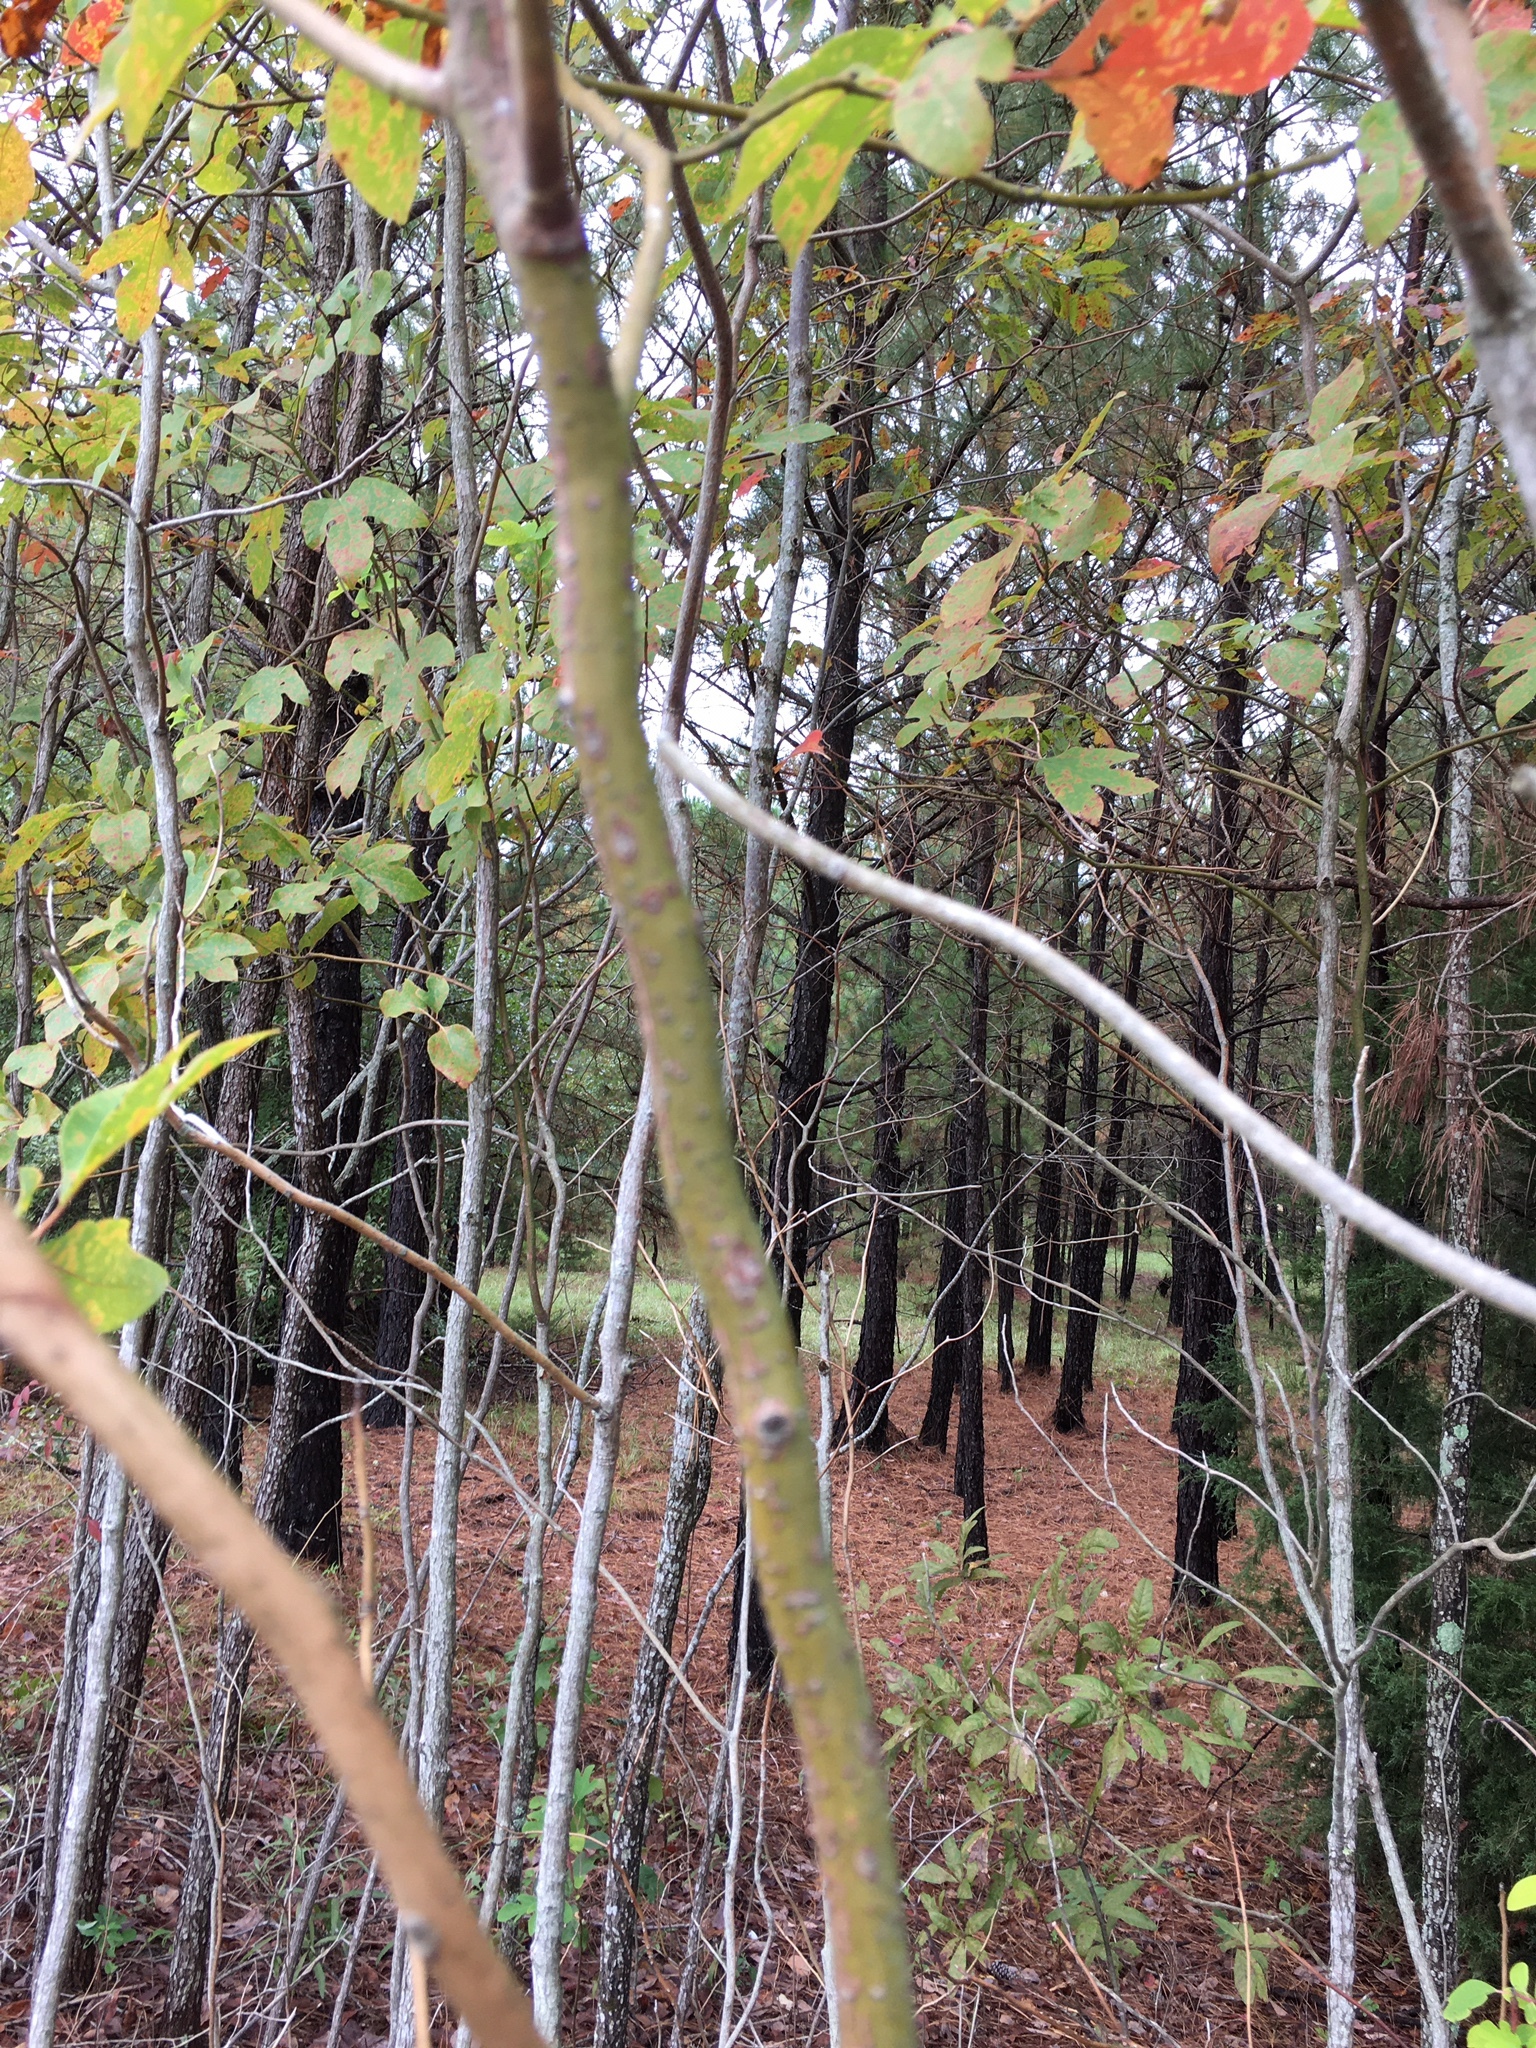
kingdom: Plantae
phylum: Tracheophyta
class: Magnoliopsida
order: Laurales
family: Lauraceae
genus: Sassafras
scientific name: Sassafras albidum
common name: Sassafras
